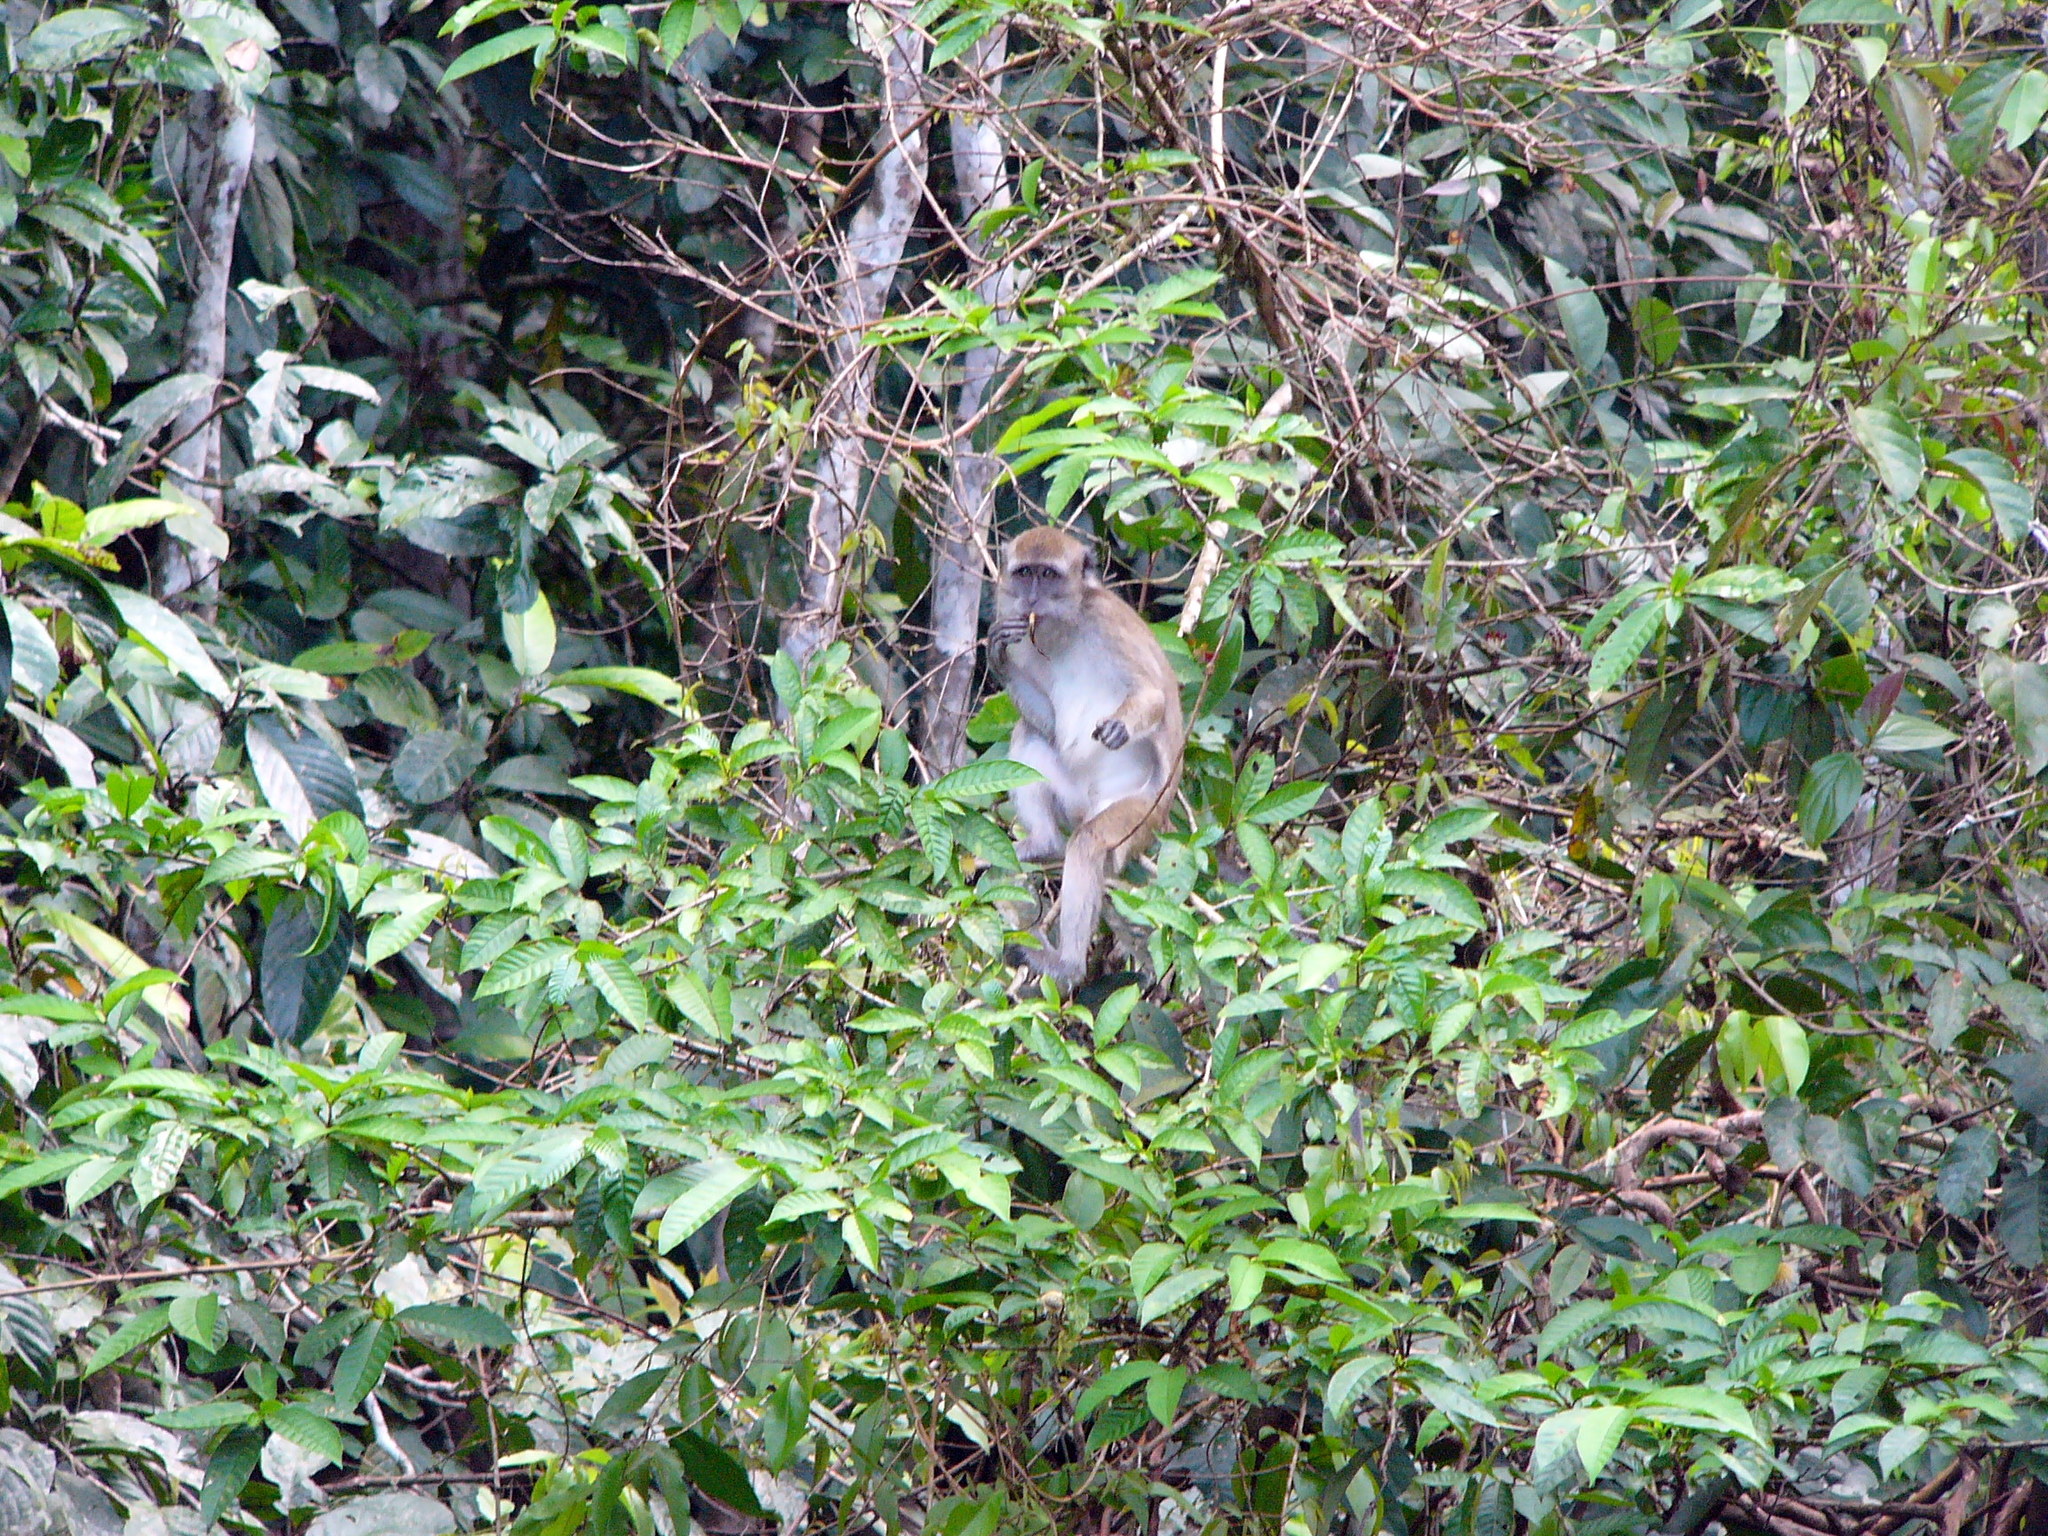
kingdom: Animalia
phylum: Chordata
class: Mammalia
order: Primates
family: Cercopithecidae
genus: Macaca
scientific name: Macaca fascicularis
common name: Crab-eating macaque
